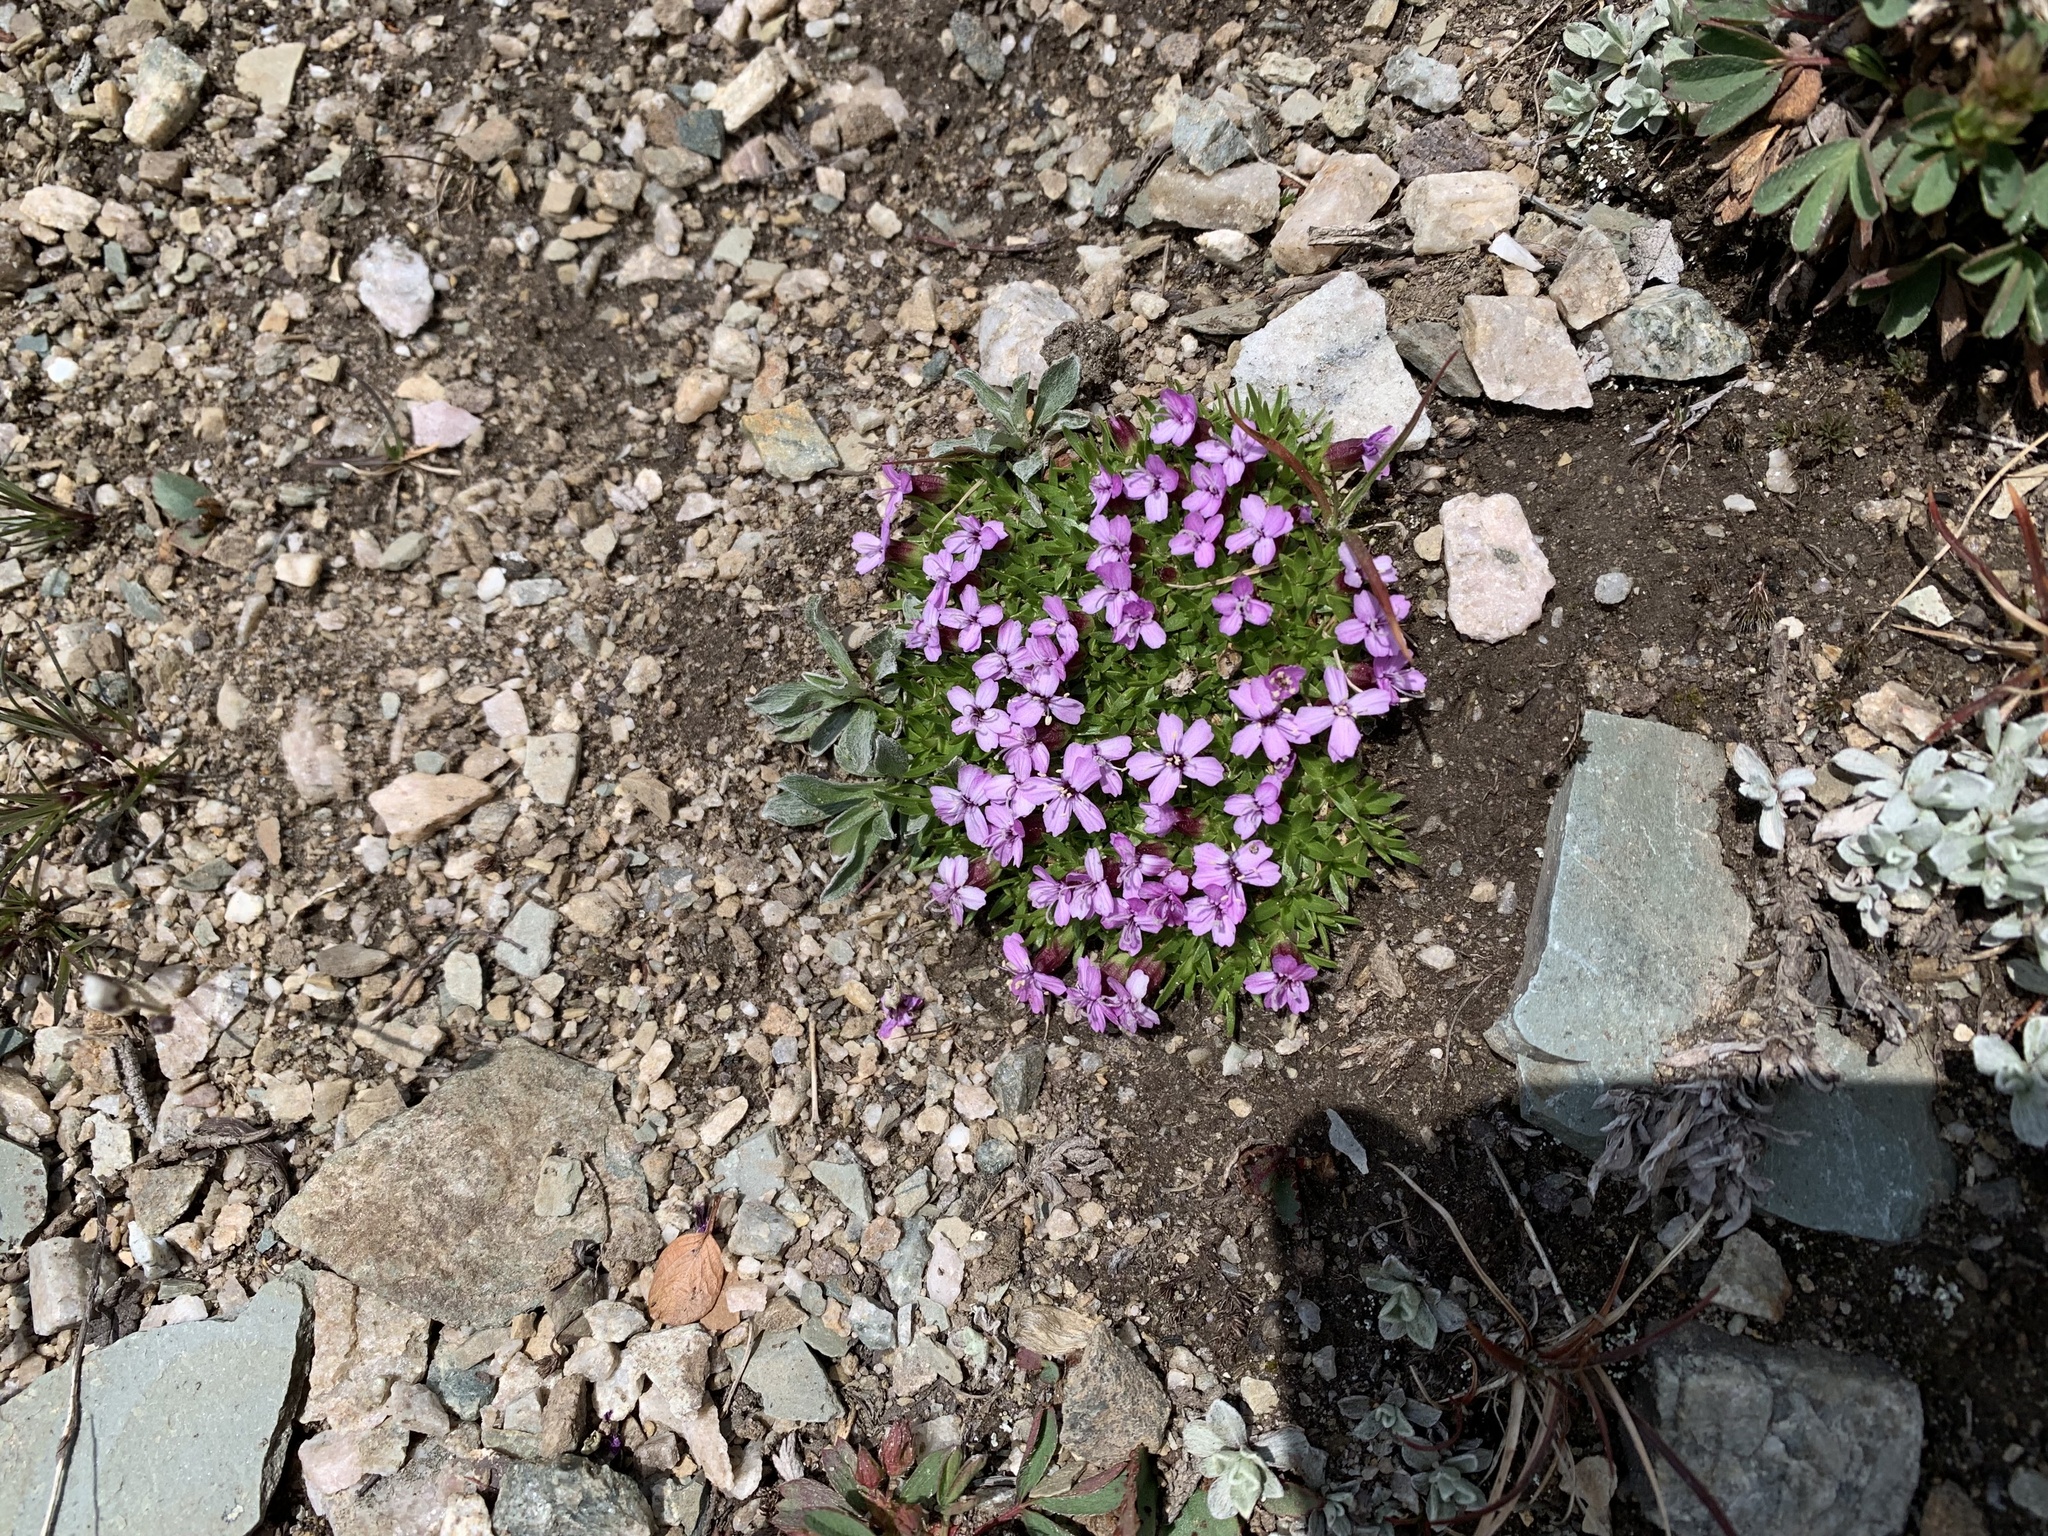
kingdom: Plantae
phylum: Tracheophyta
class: Magnoliopsida
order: Caryophyllales
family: Caryophyllaceae
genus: Silene
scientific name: Silene acaulis
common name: Moss campion
